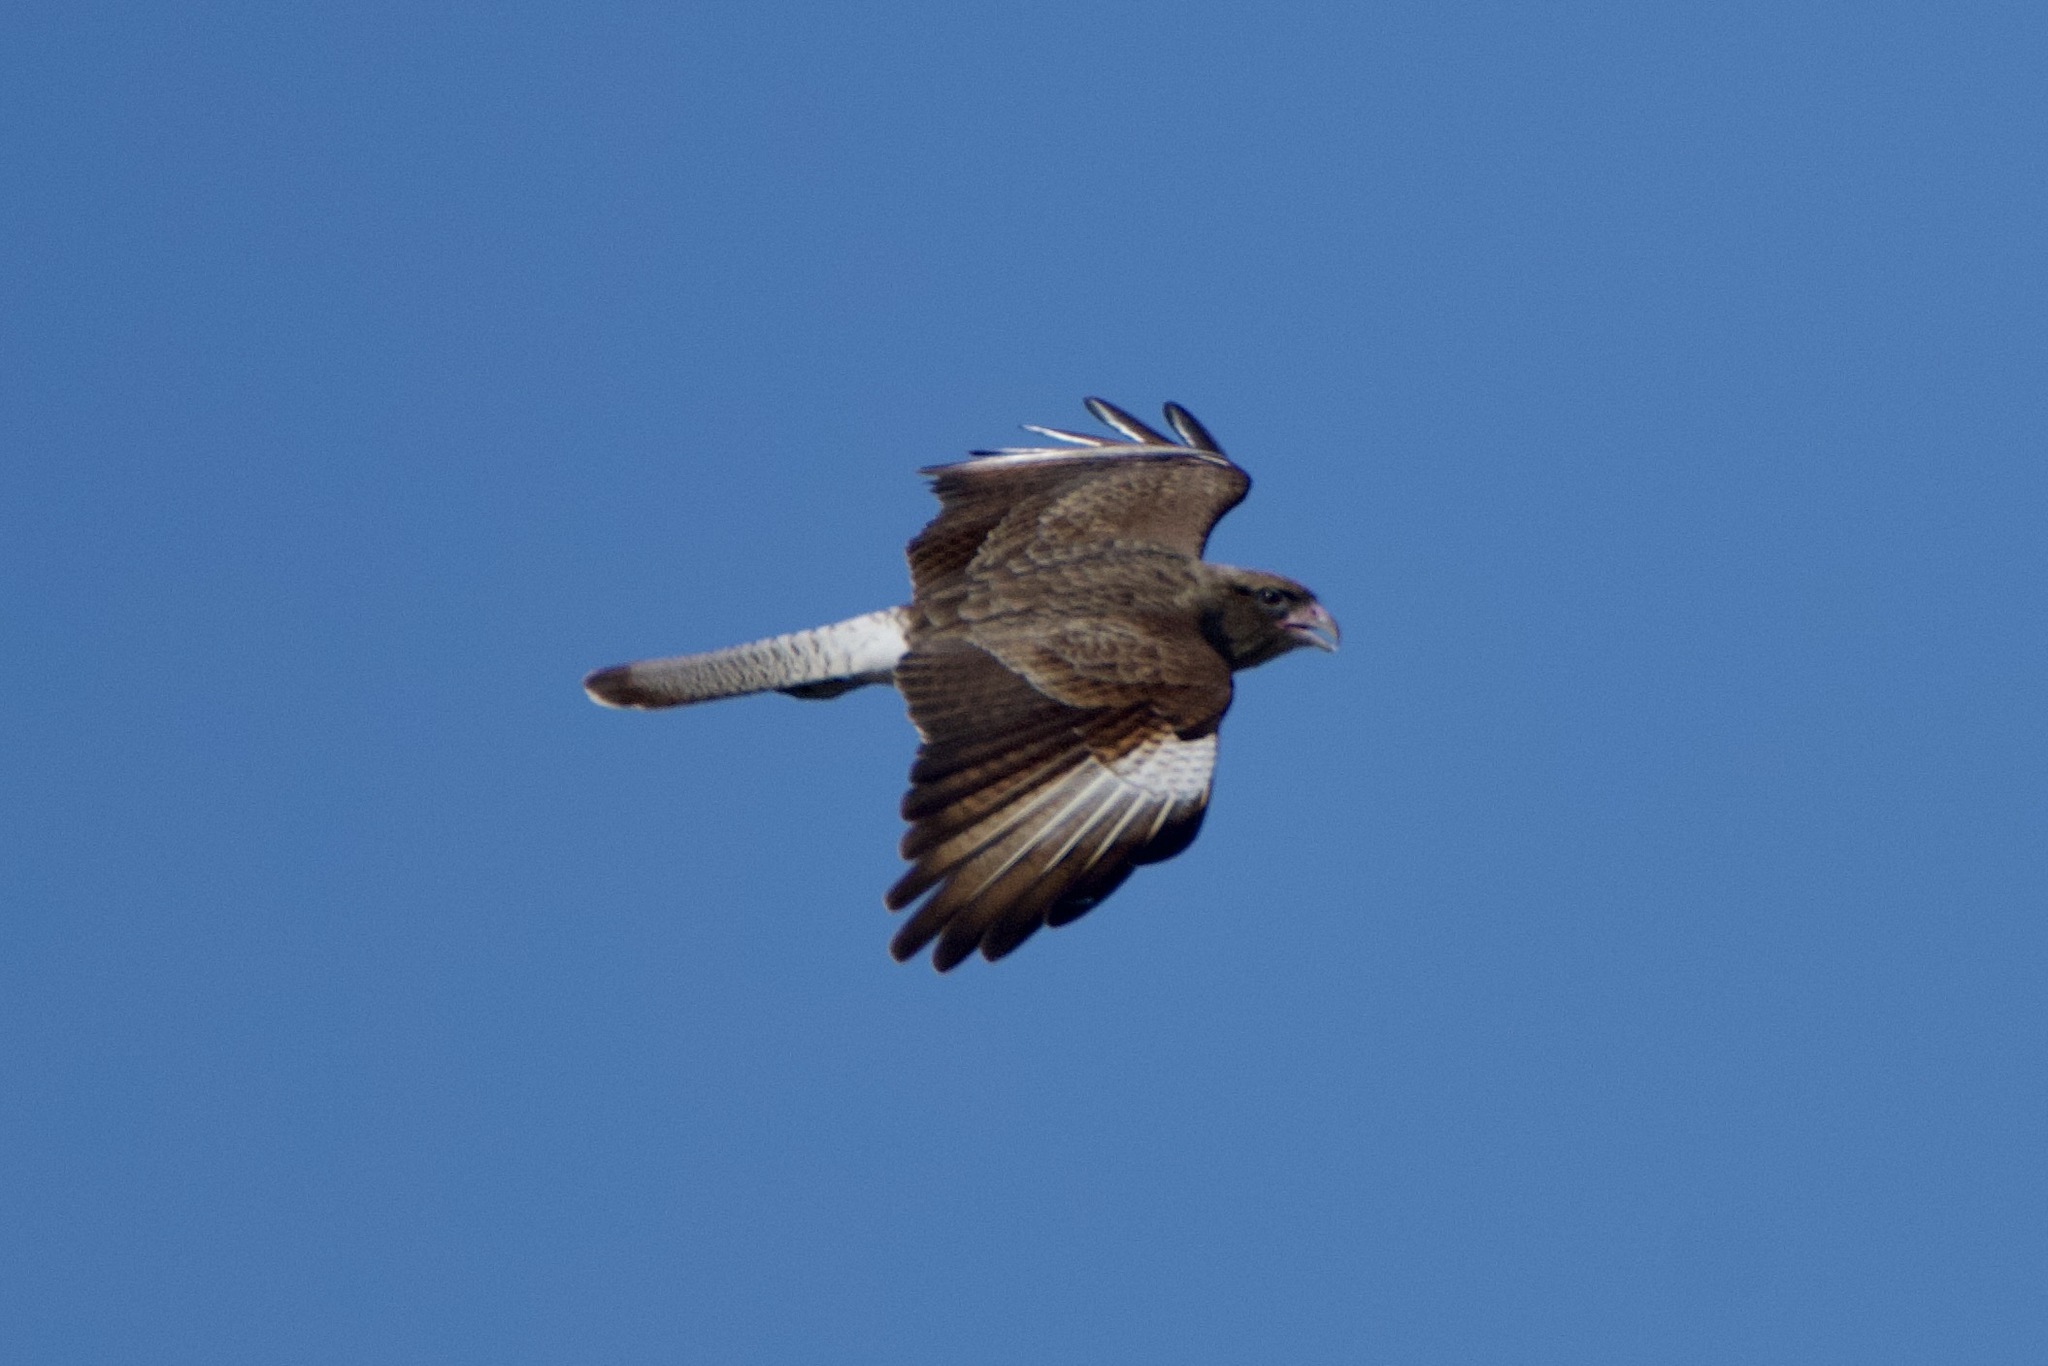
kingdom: Animalia
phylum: Chordata
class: Aves
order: Falconiformes
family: Falconidae
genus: Daptrius
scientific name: Daptrius
